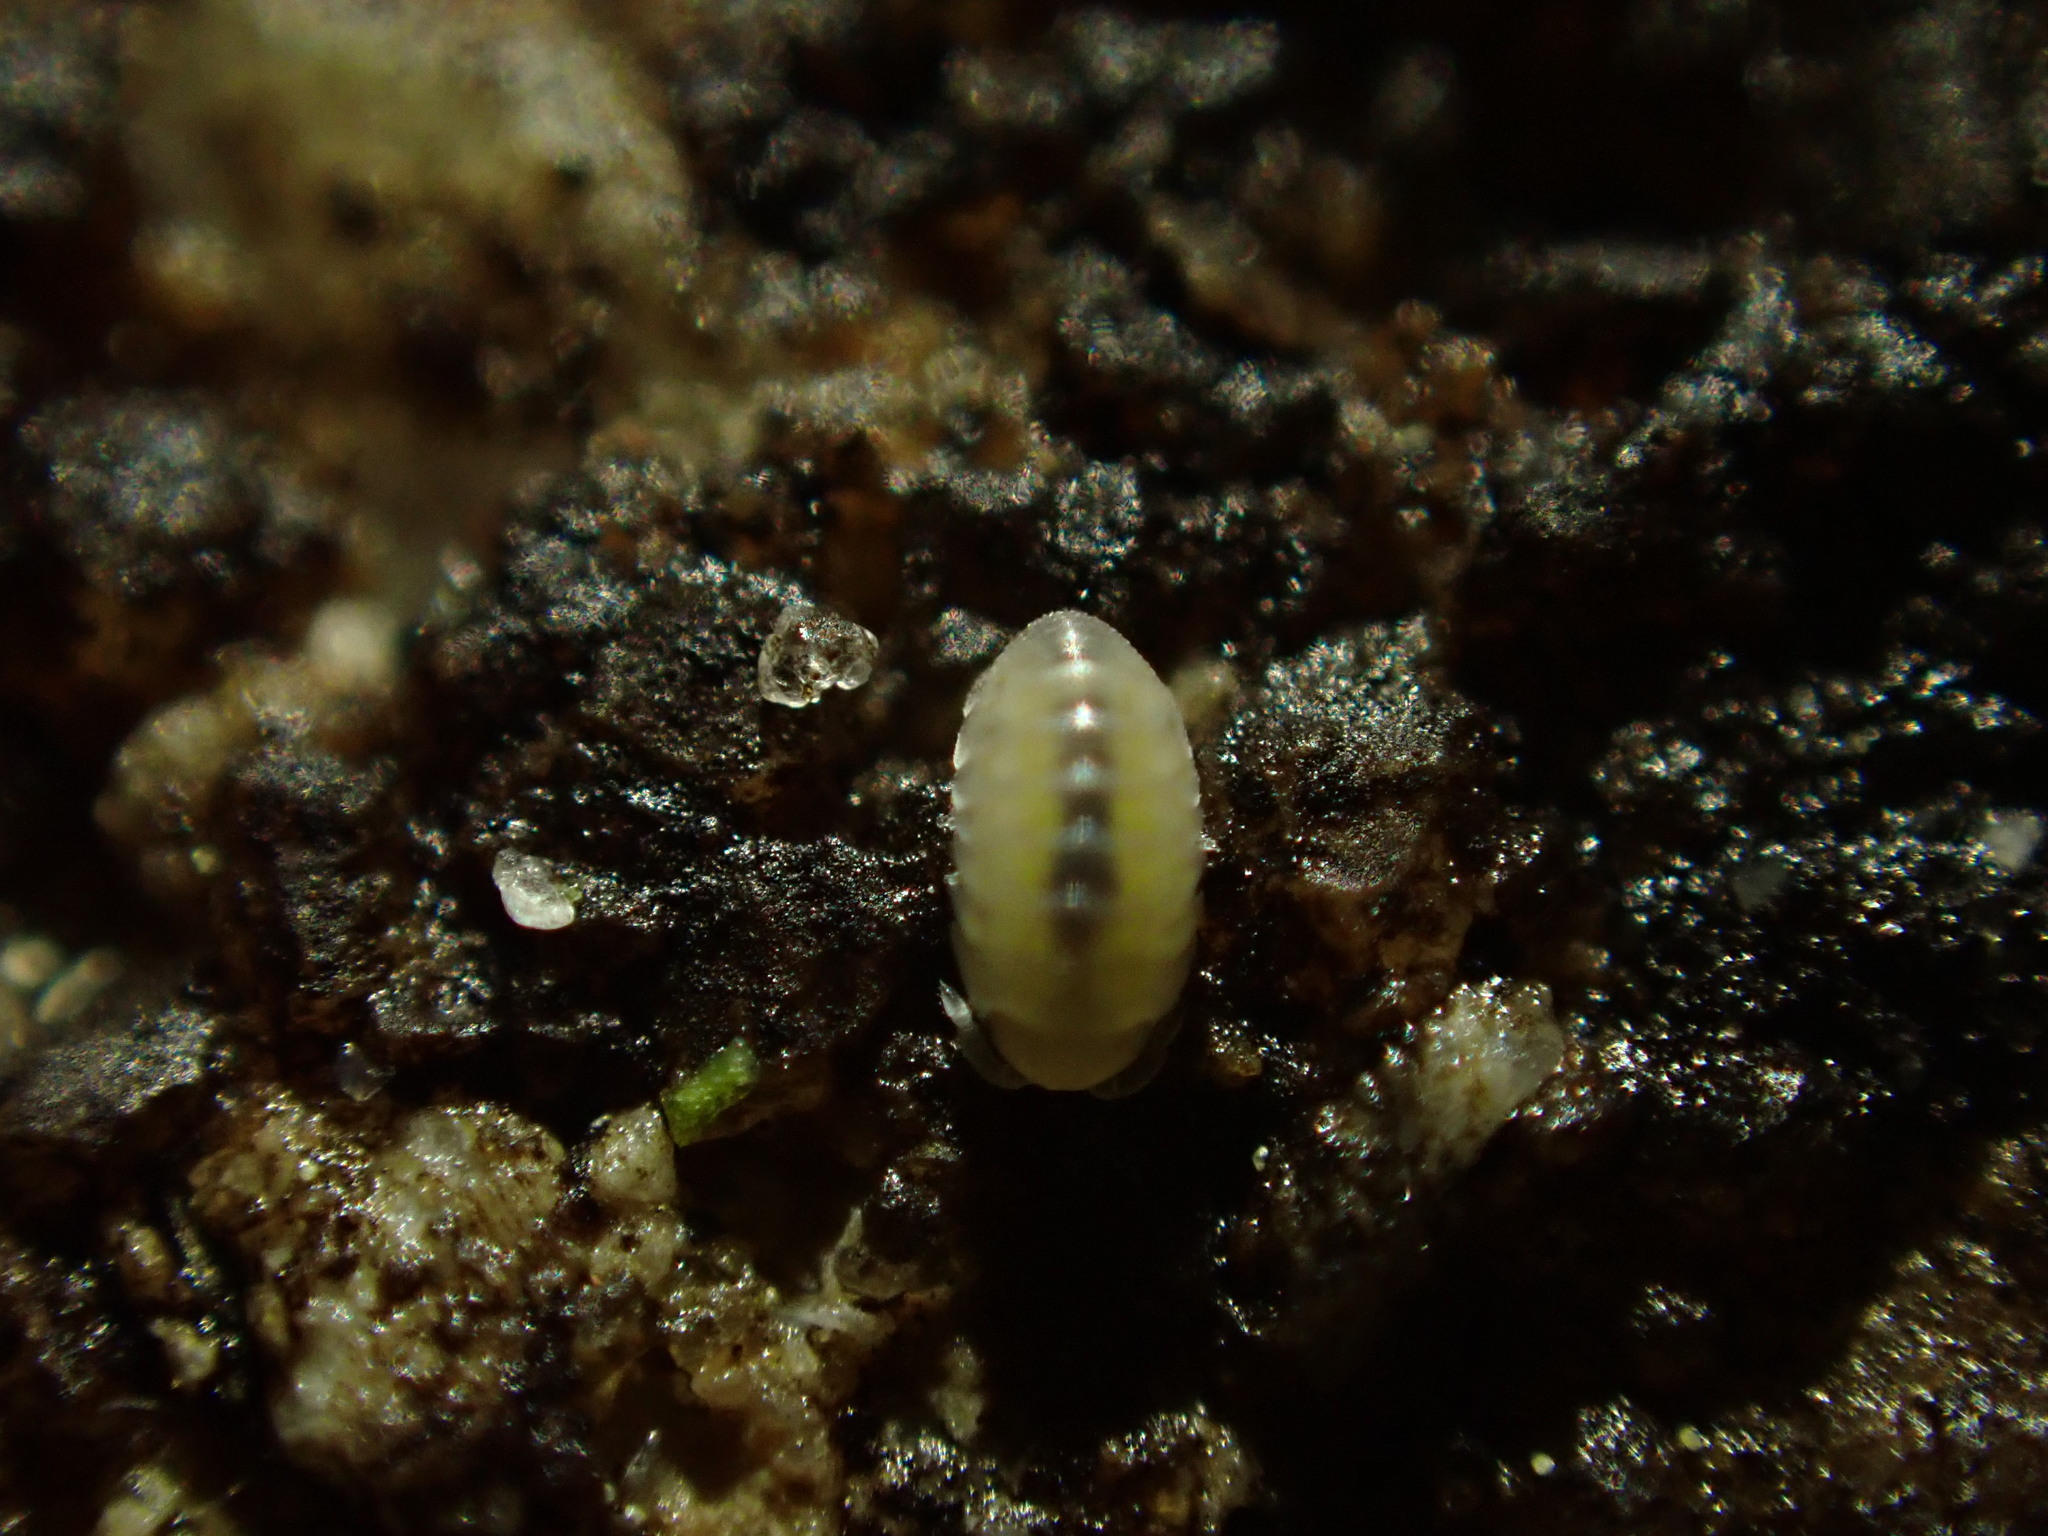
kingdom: Animalia
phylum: Arthropoda
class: Malacostraca
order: Isopoda
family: Armadillidiidae
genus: Armadillidium
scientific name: Armadillidium vulgare
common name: Common pill woodlouse
